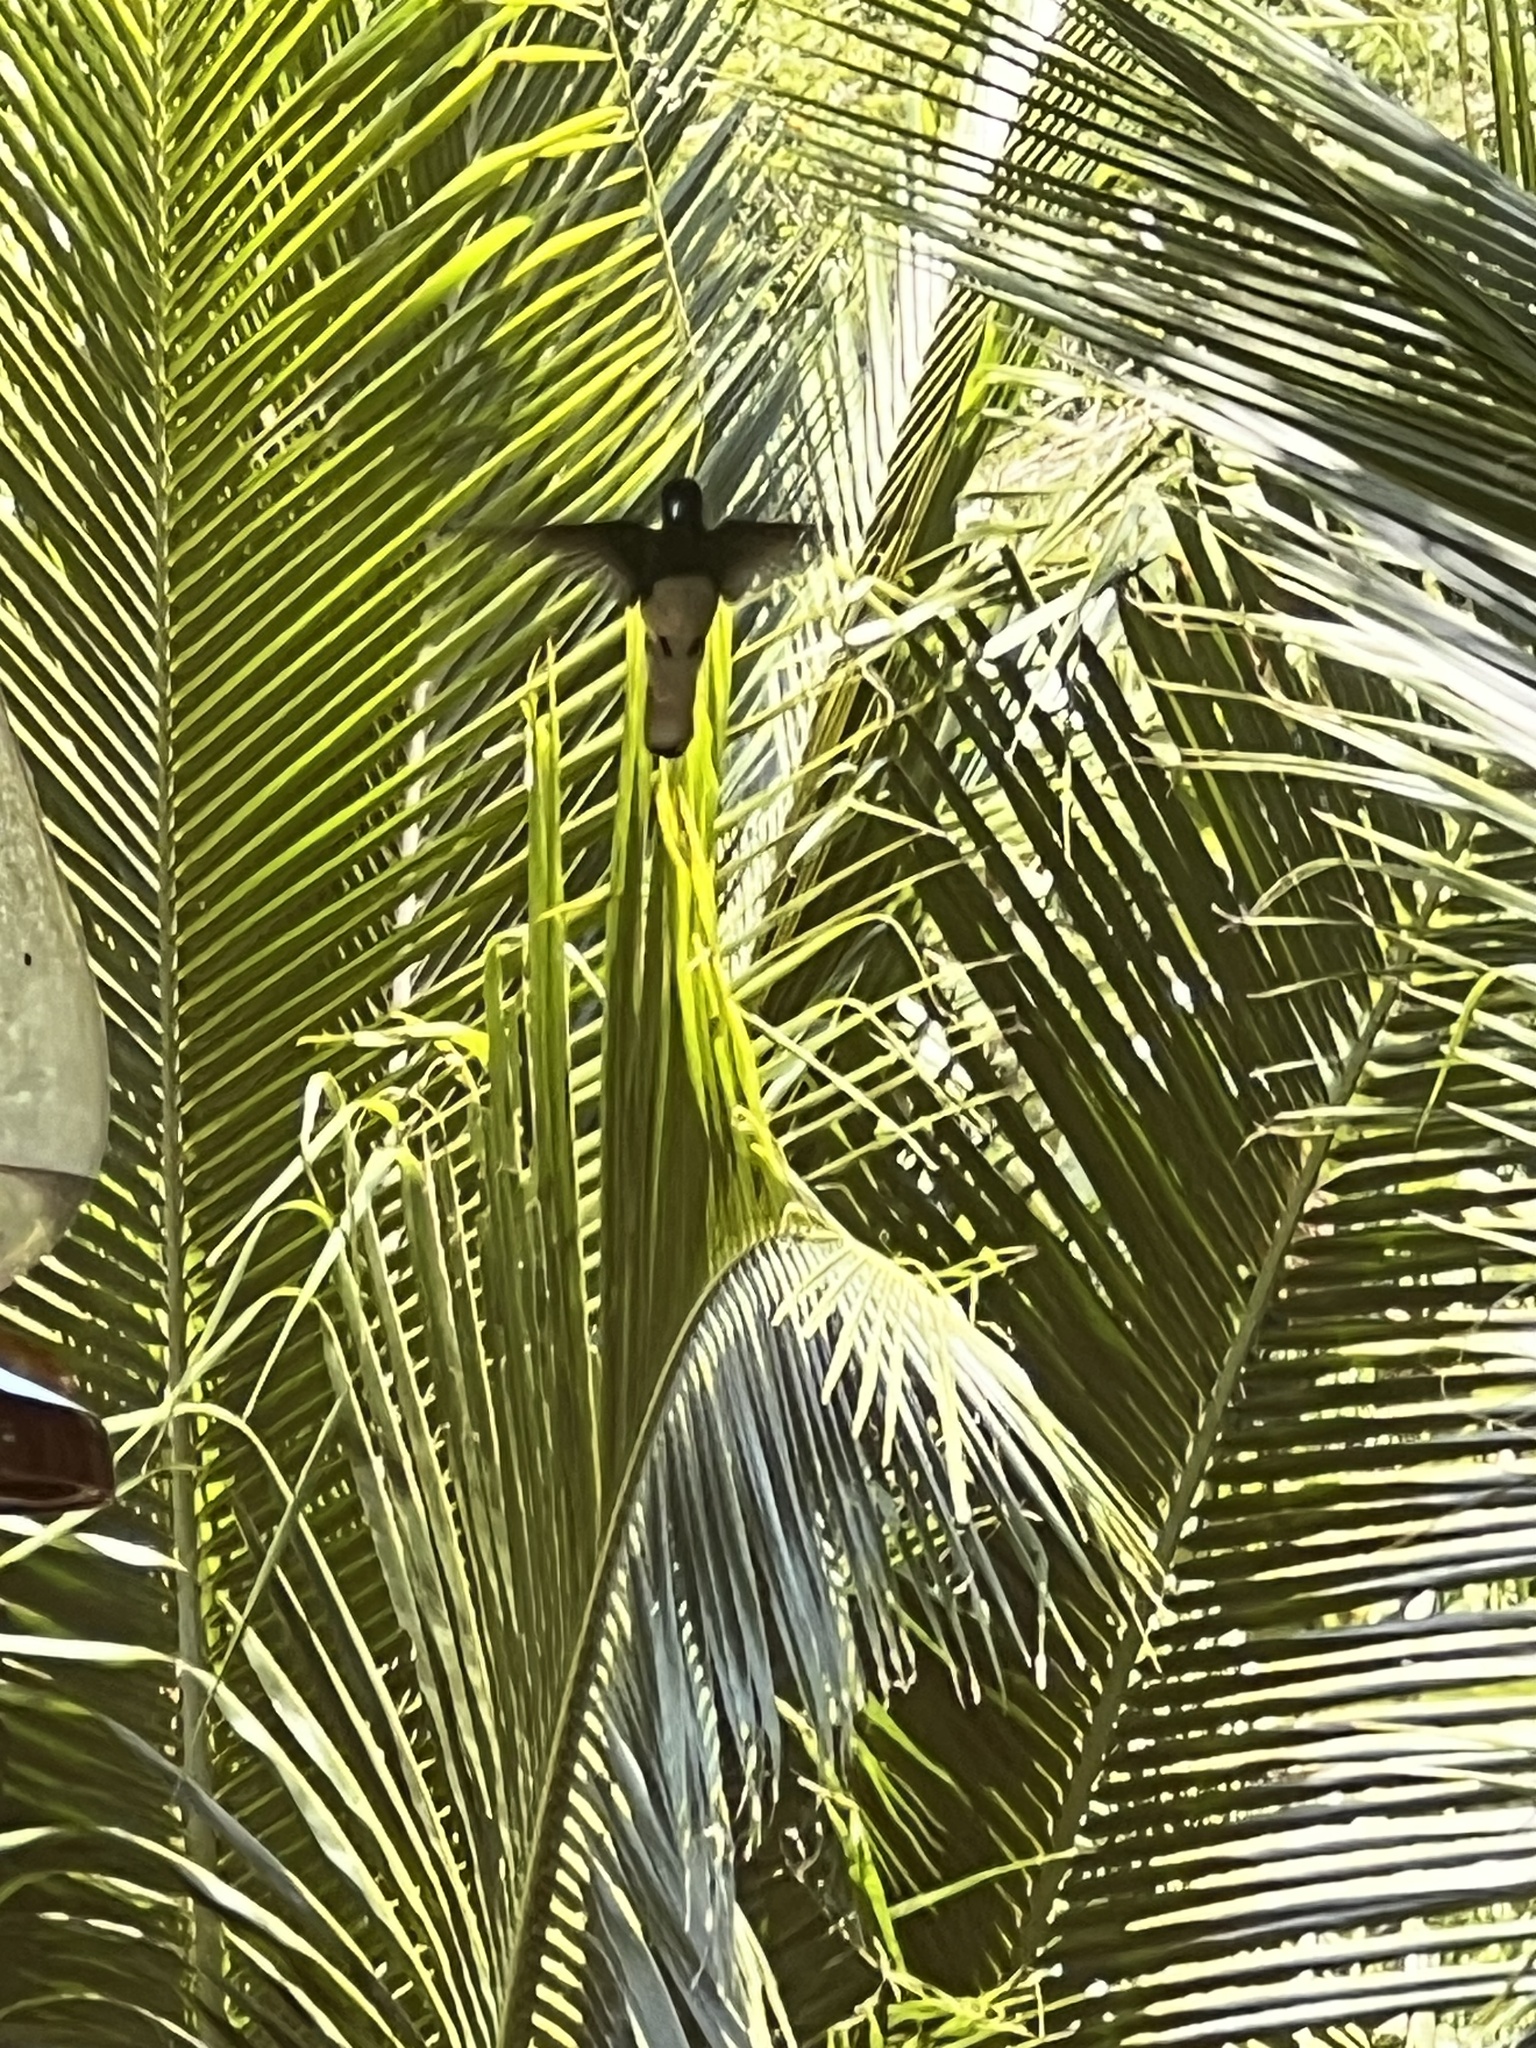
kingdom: Animalia
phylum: Chordata
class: Aves
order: Apodiformes
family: Trochilidae
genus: Florisuga
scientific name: Florisuga mellivora
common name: White-necked jacobin
